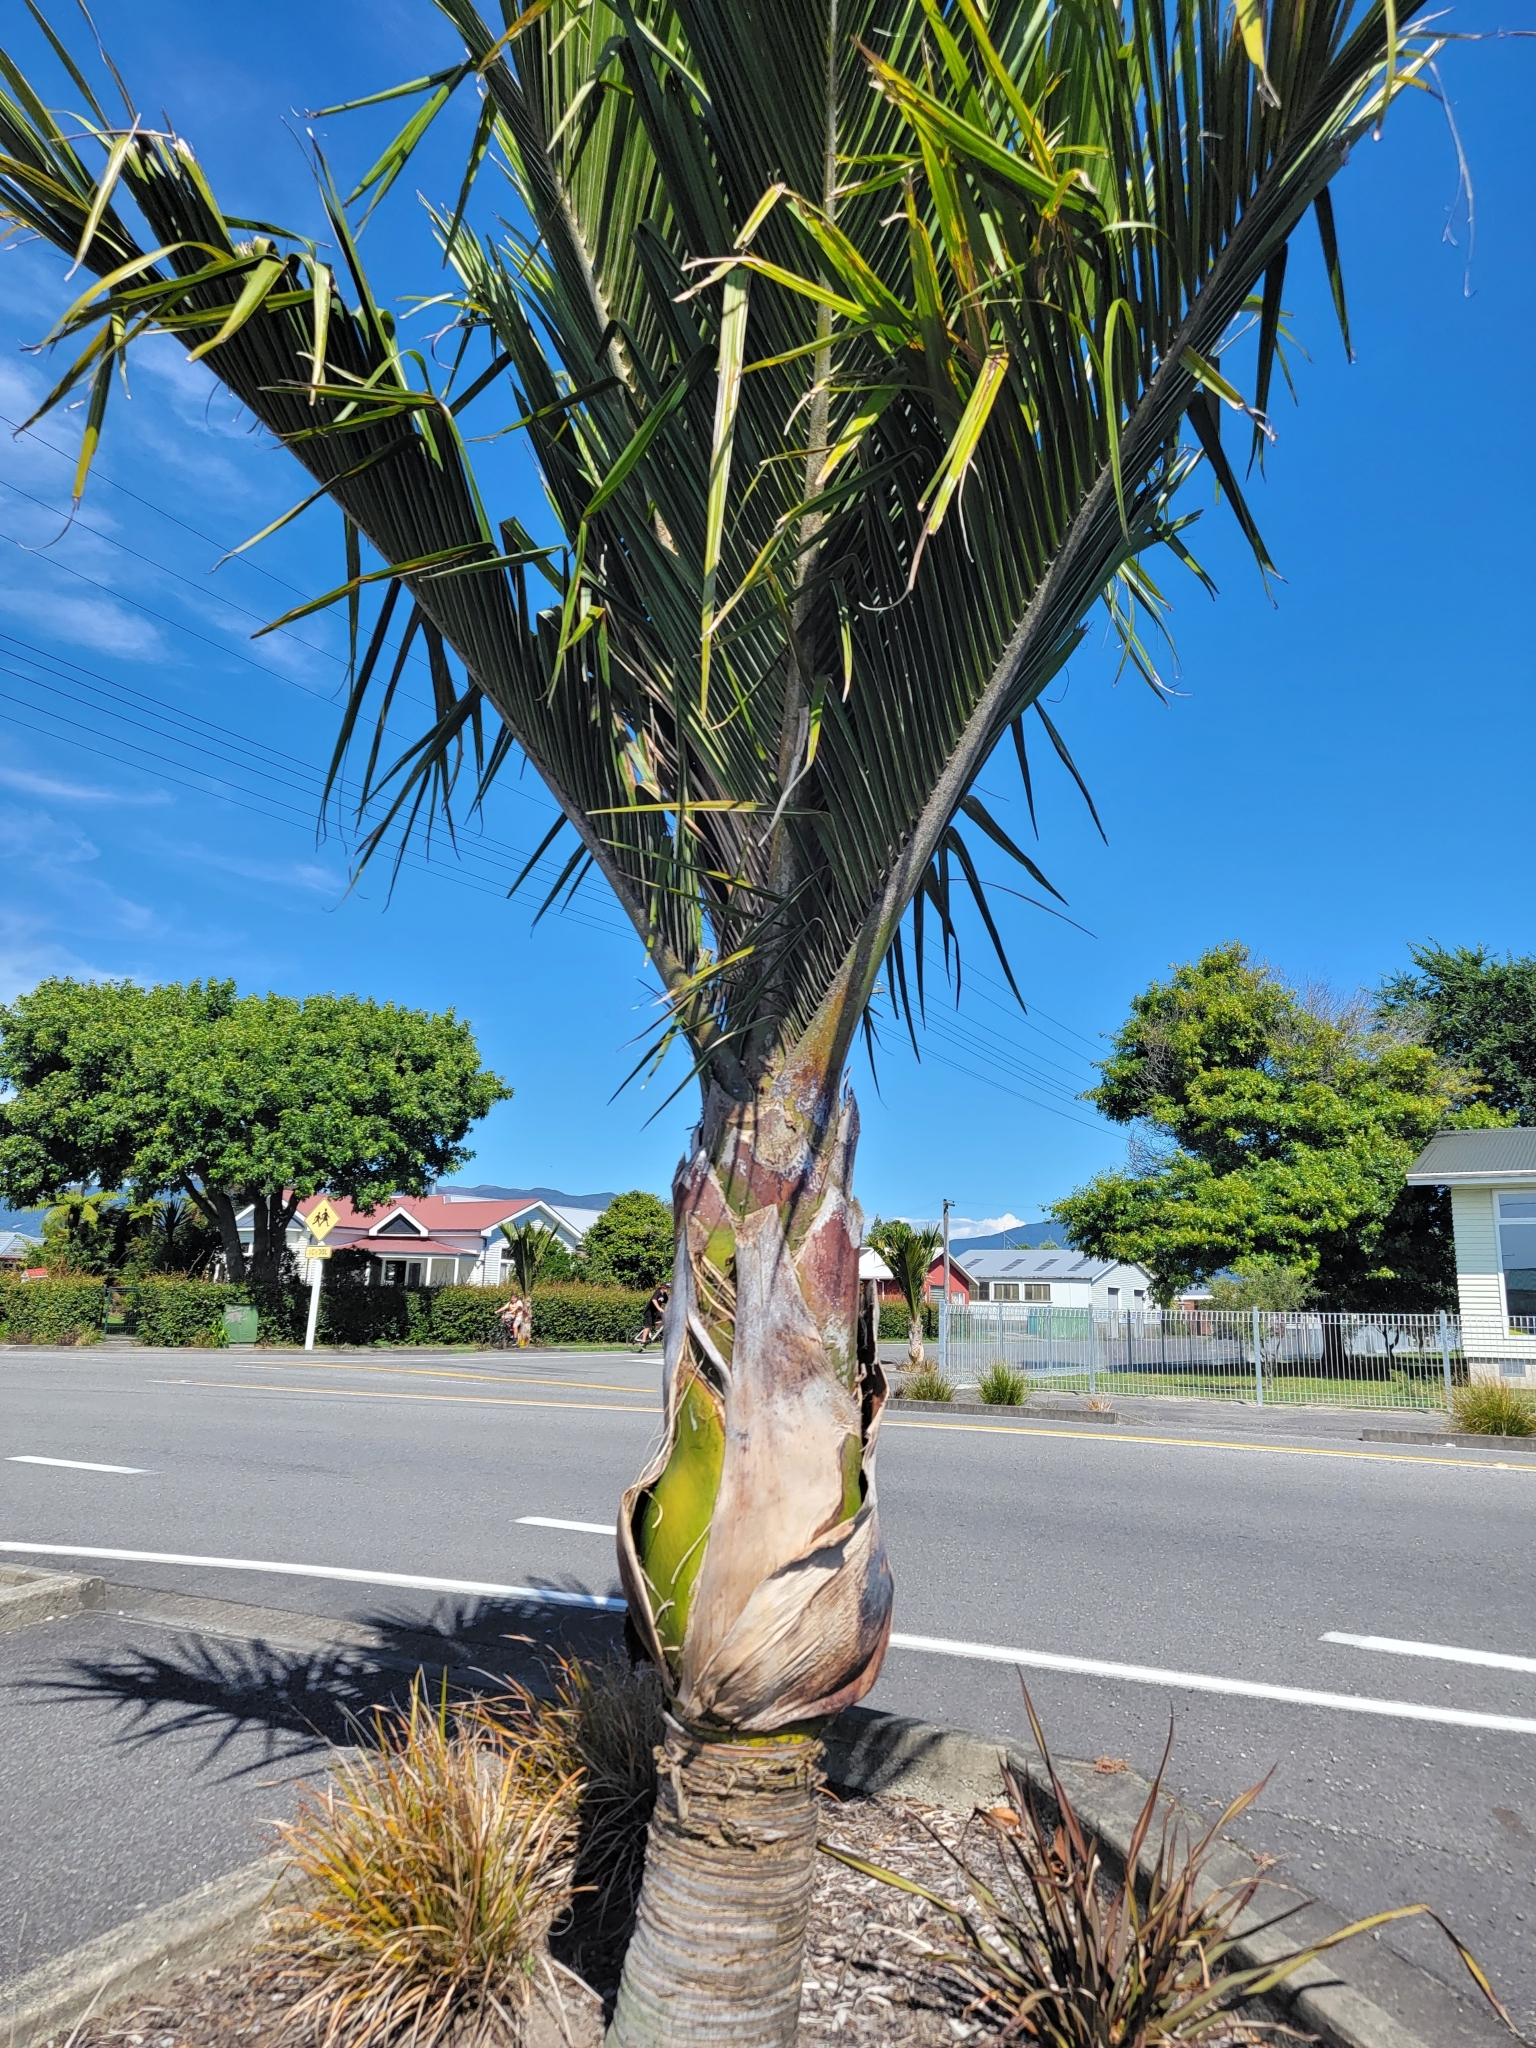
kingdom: Plantae
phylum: Tracheophyta
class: Liliopsida
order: Arecales
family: Arecaceae
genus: Rhopalostylis
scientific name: Rhopalostylis sapida
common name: Feather-duster palm
